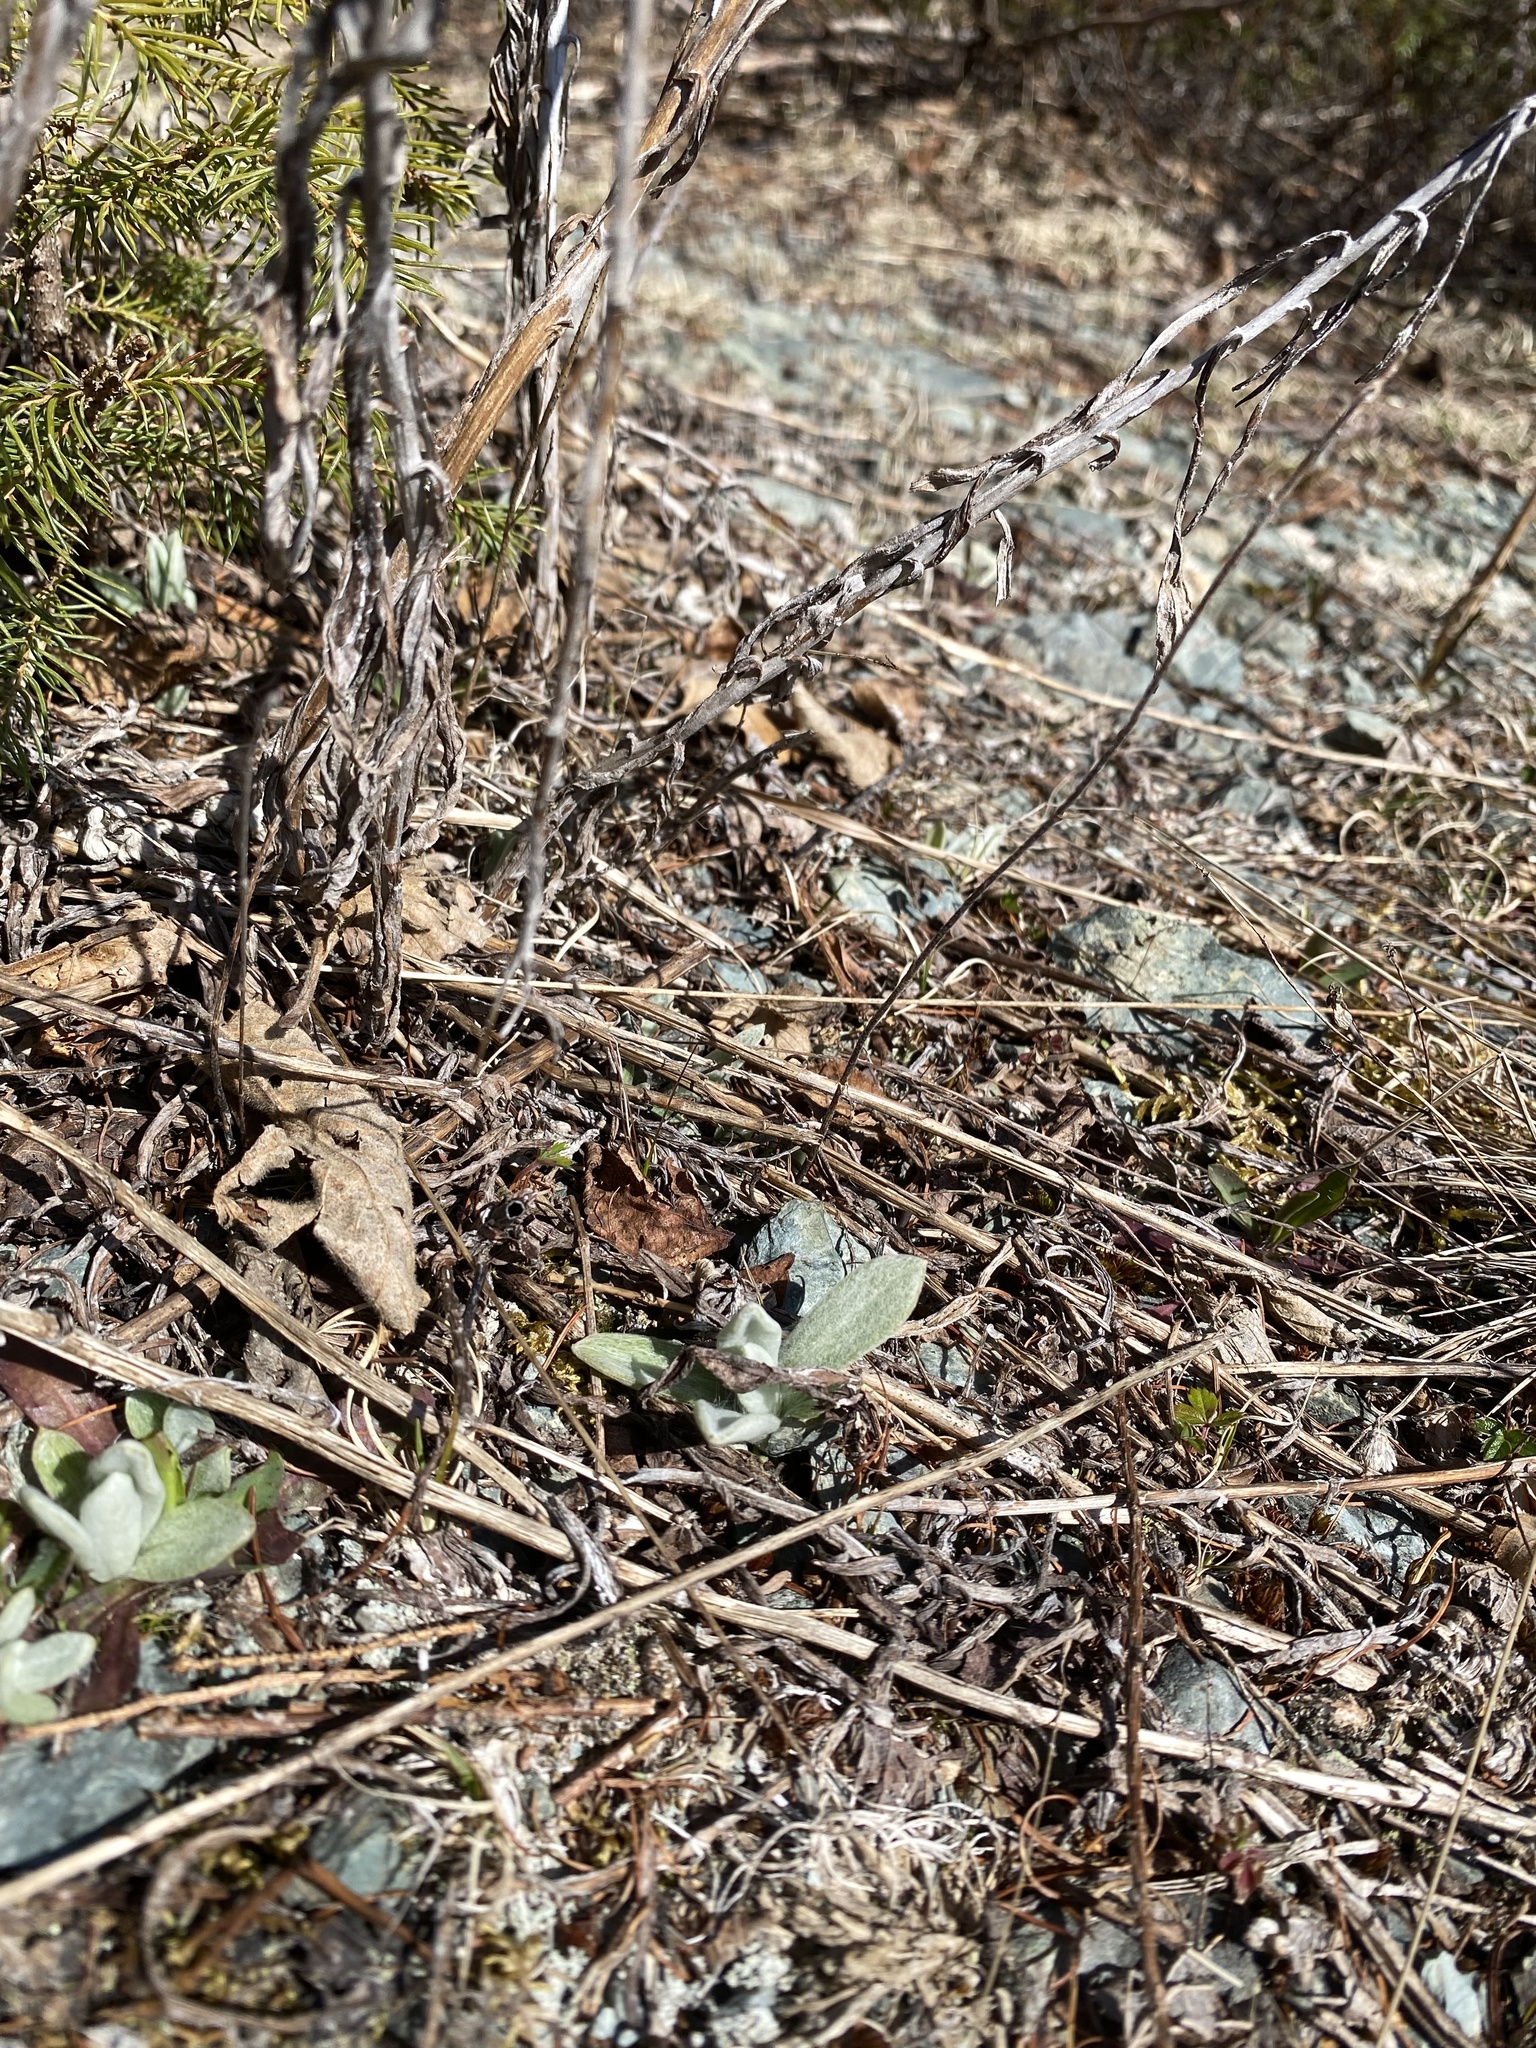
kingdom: Plantae
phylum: Tracheophyta
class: Magnoliopsida
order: Asterales
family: Asteraceae
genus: Anaphalis
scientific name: Anaphalis margaritacea
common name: Pearly everlasting
